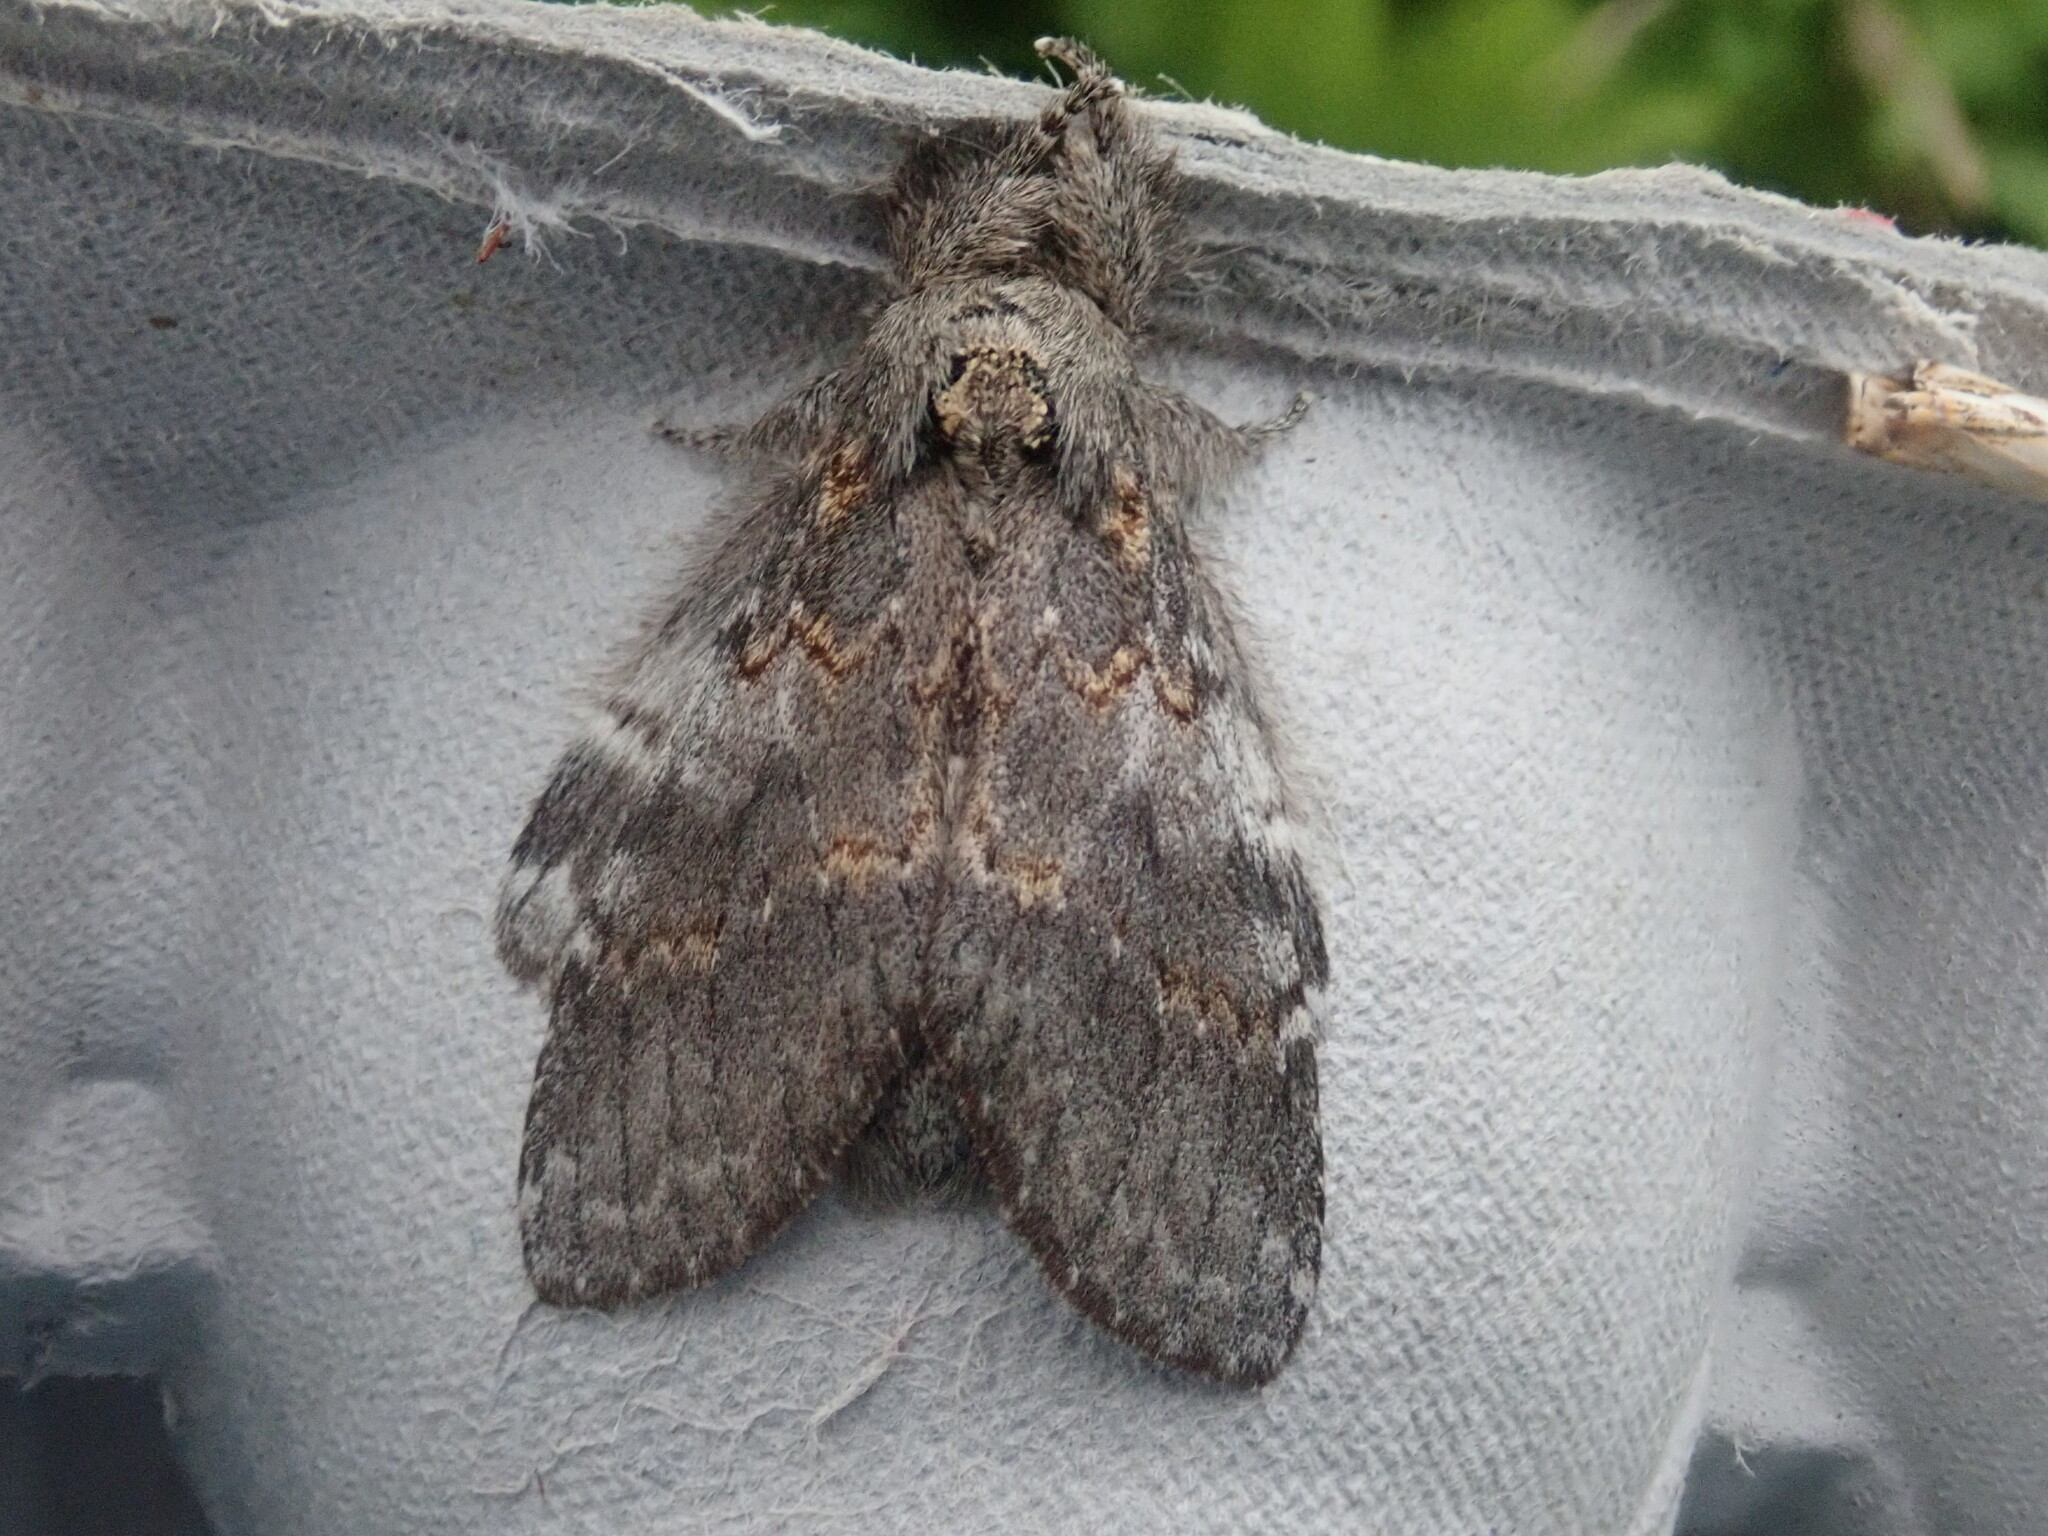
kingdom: Animalia
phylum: Arthropoda
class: Insecta
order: Lepidoptera
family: Notodontidae
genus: Peridea
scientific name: Peridea angulosa
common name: Angulose prominent
